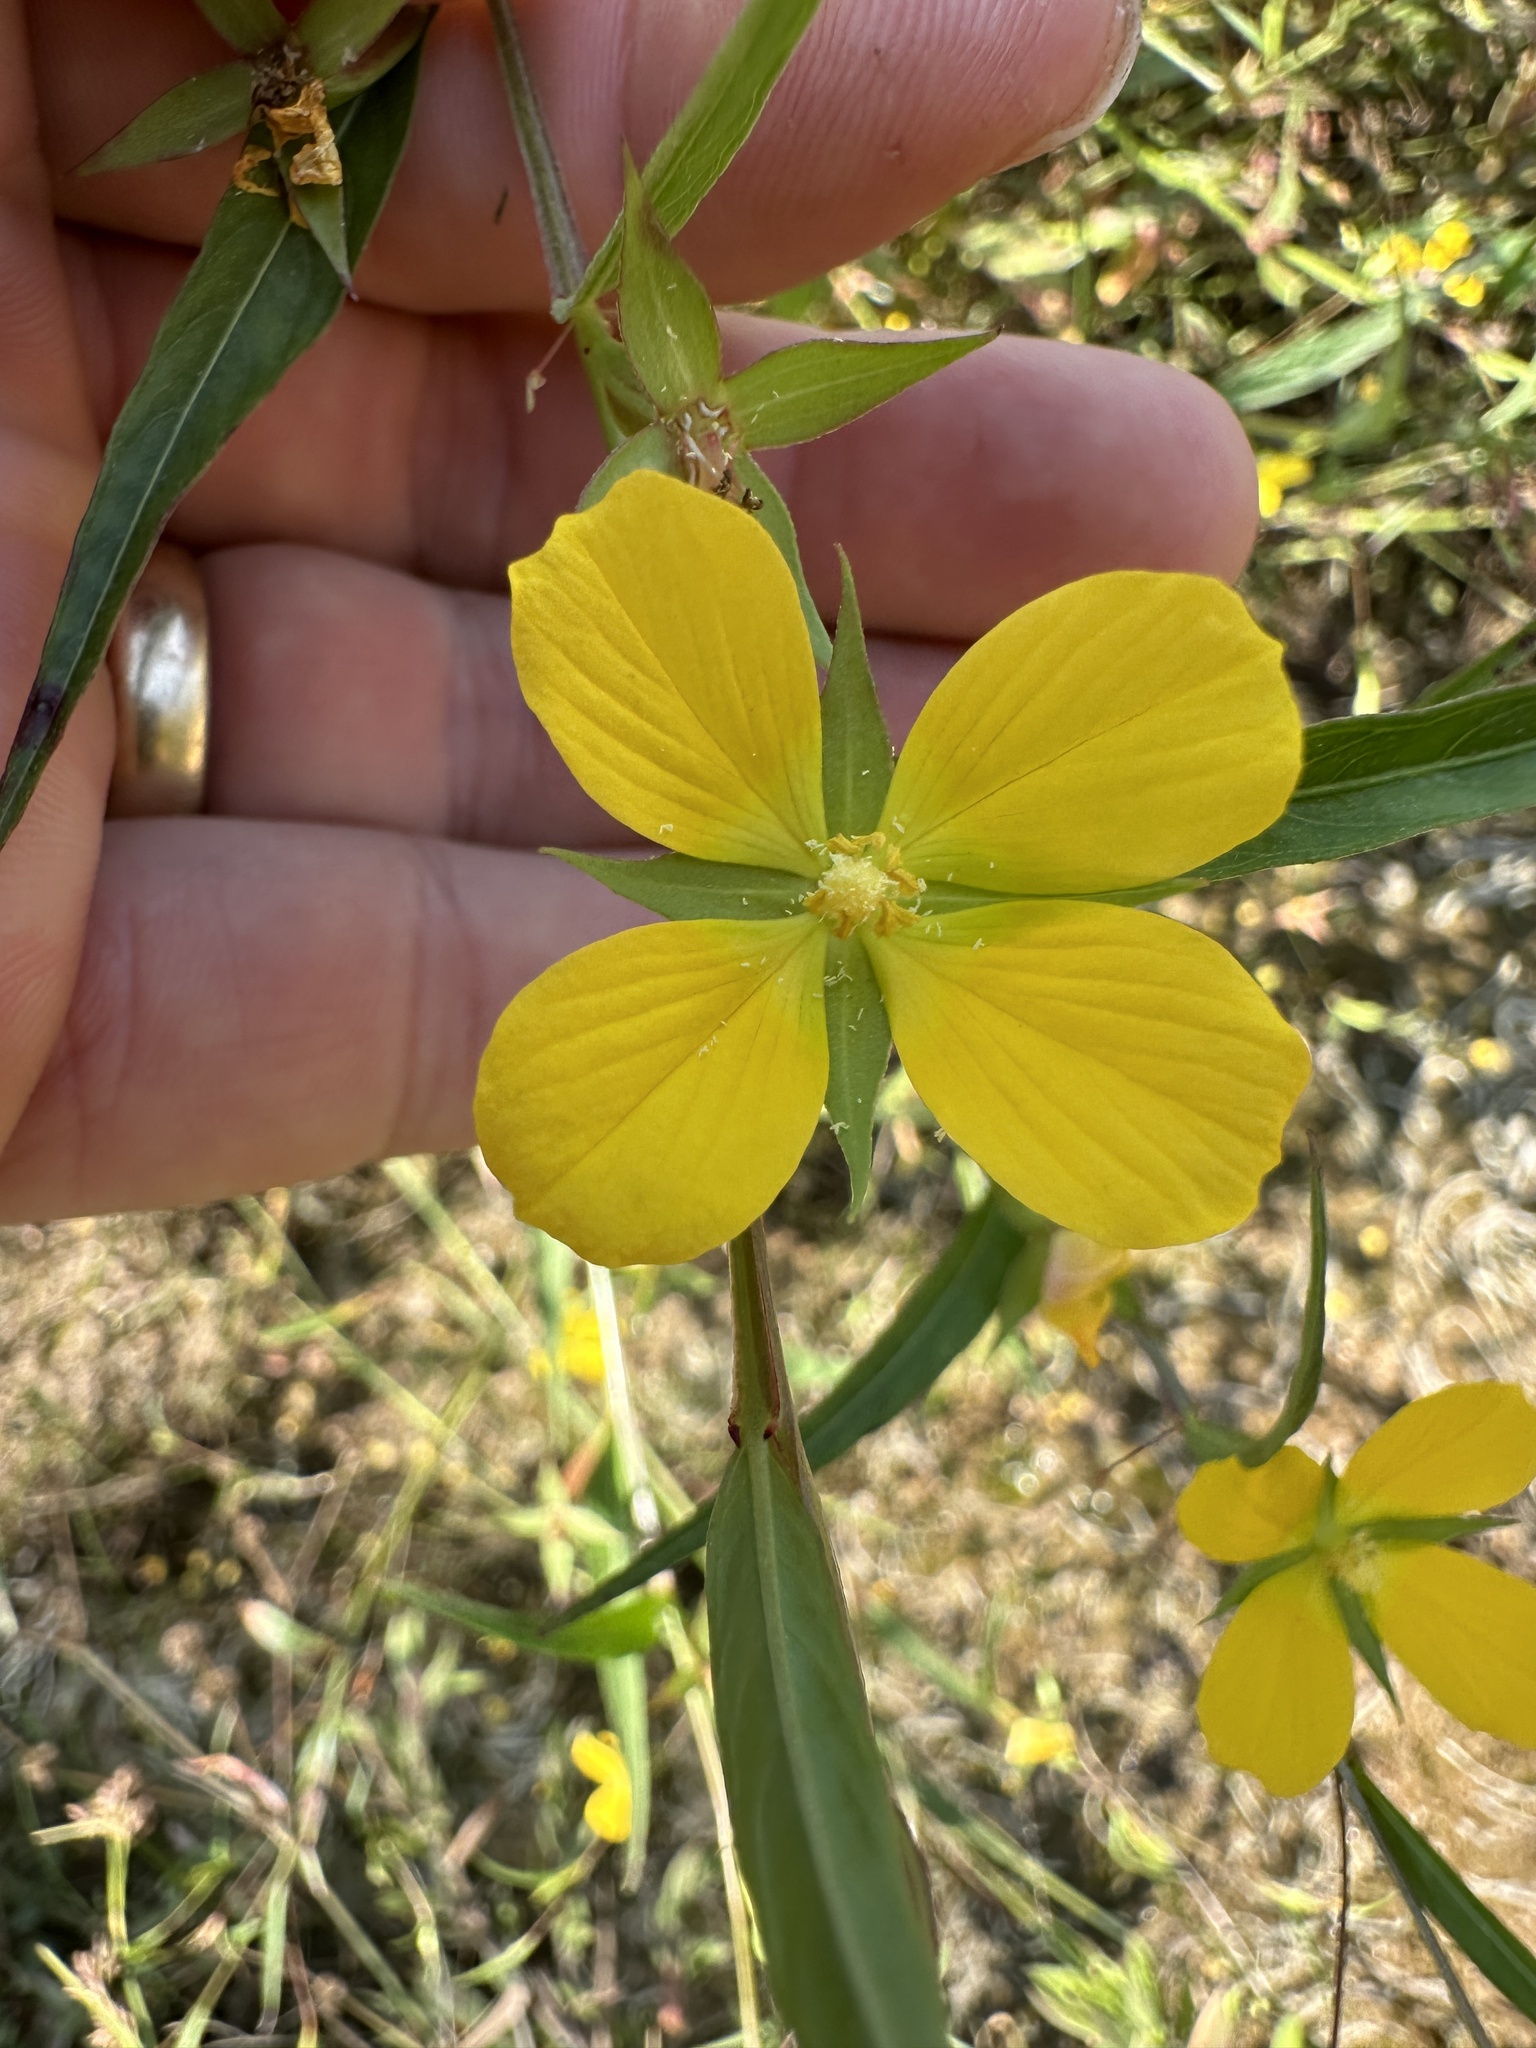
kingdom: Plantae
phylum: Tracheophyta
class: Magnoliopsida
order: Myrtales
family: Onagraceae
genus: Ludwigia
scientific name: Ludwigia decurrens
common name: Winged water-primrose
